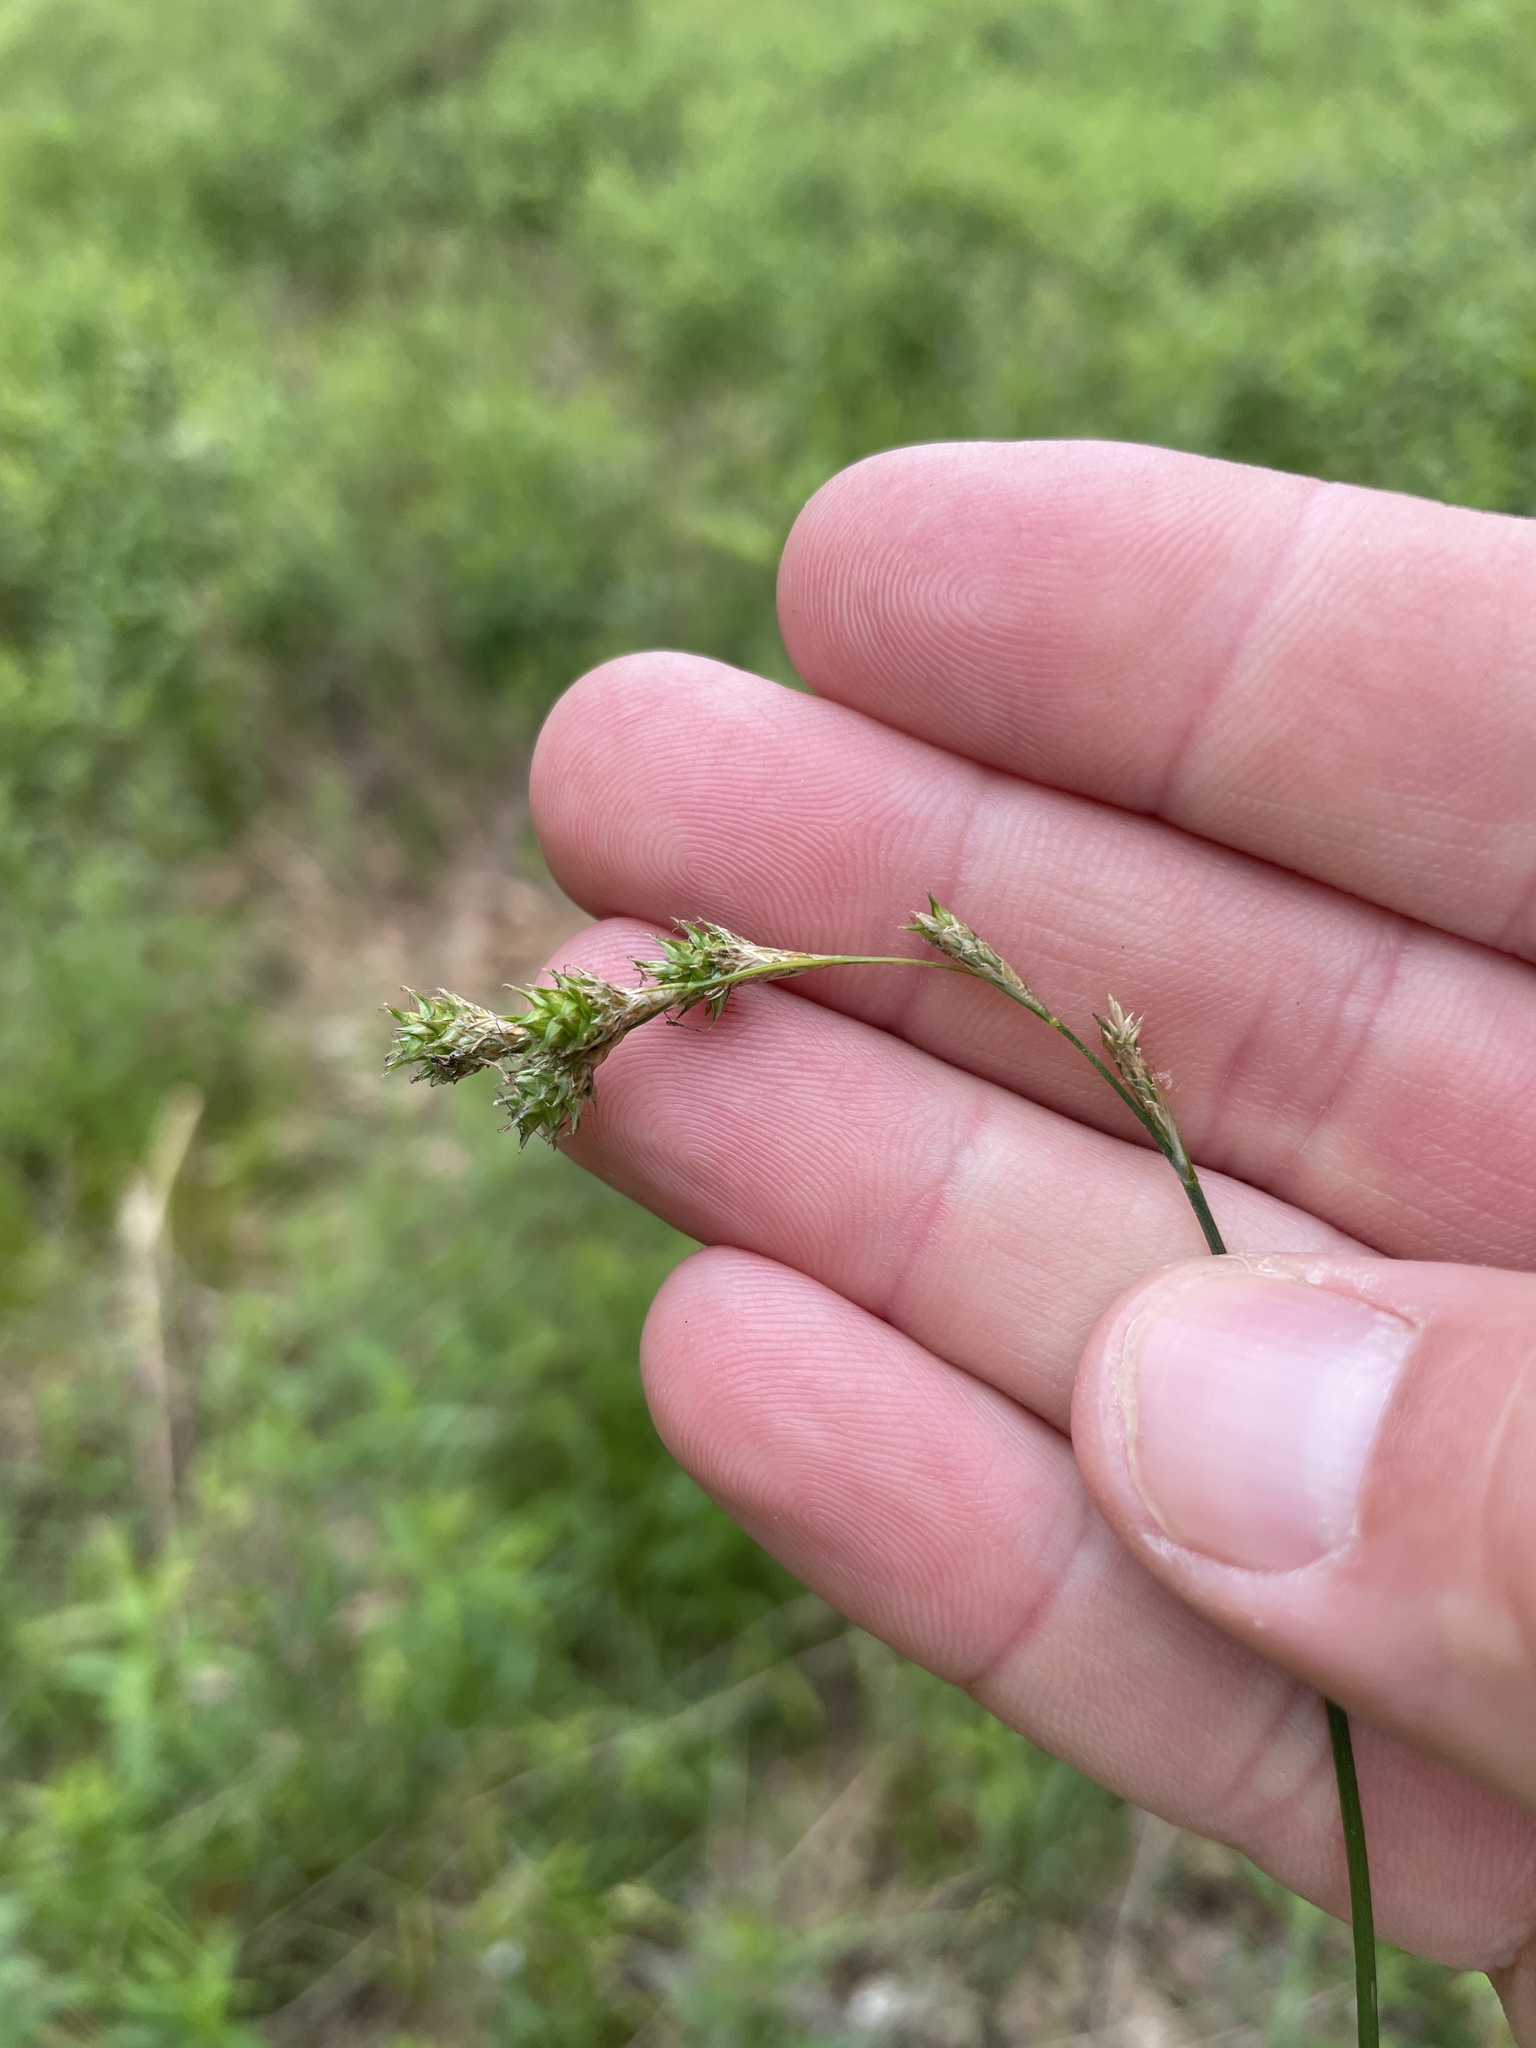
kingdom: Plantae
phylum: Tracheophyta
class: Liliopsida
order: Poales
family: Cyperaceae
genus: Carex
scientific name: Carex tenera
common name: Broad-fruited sedge
